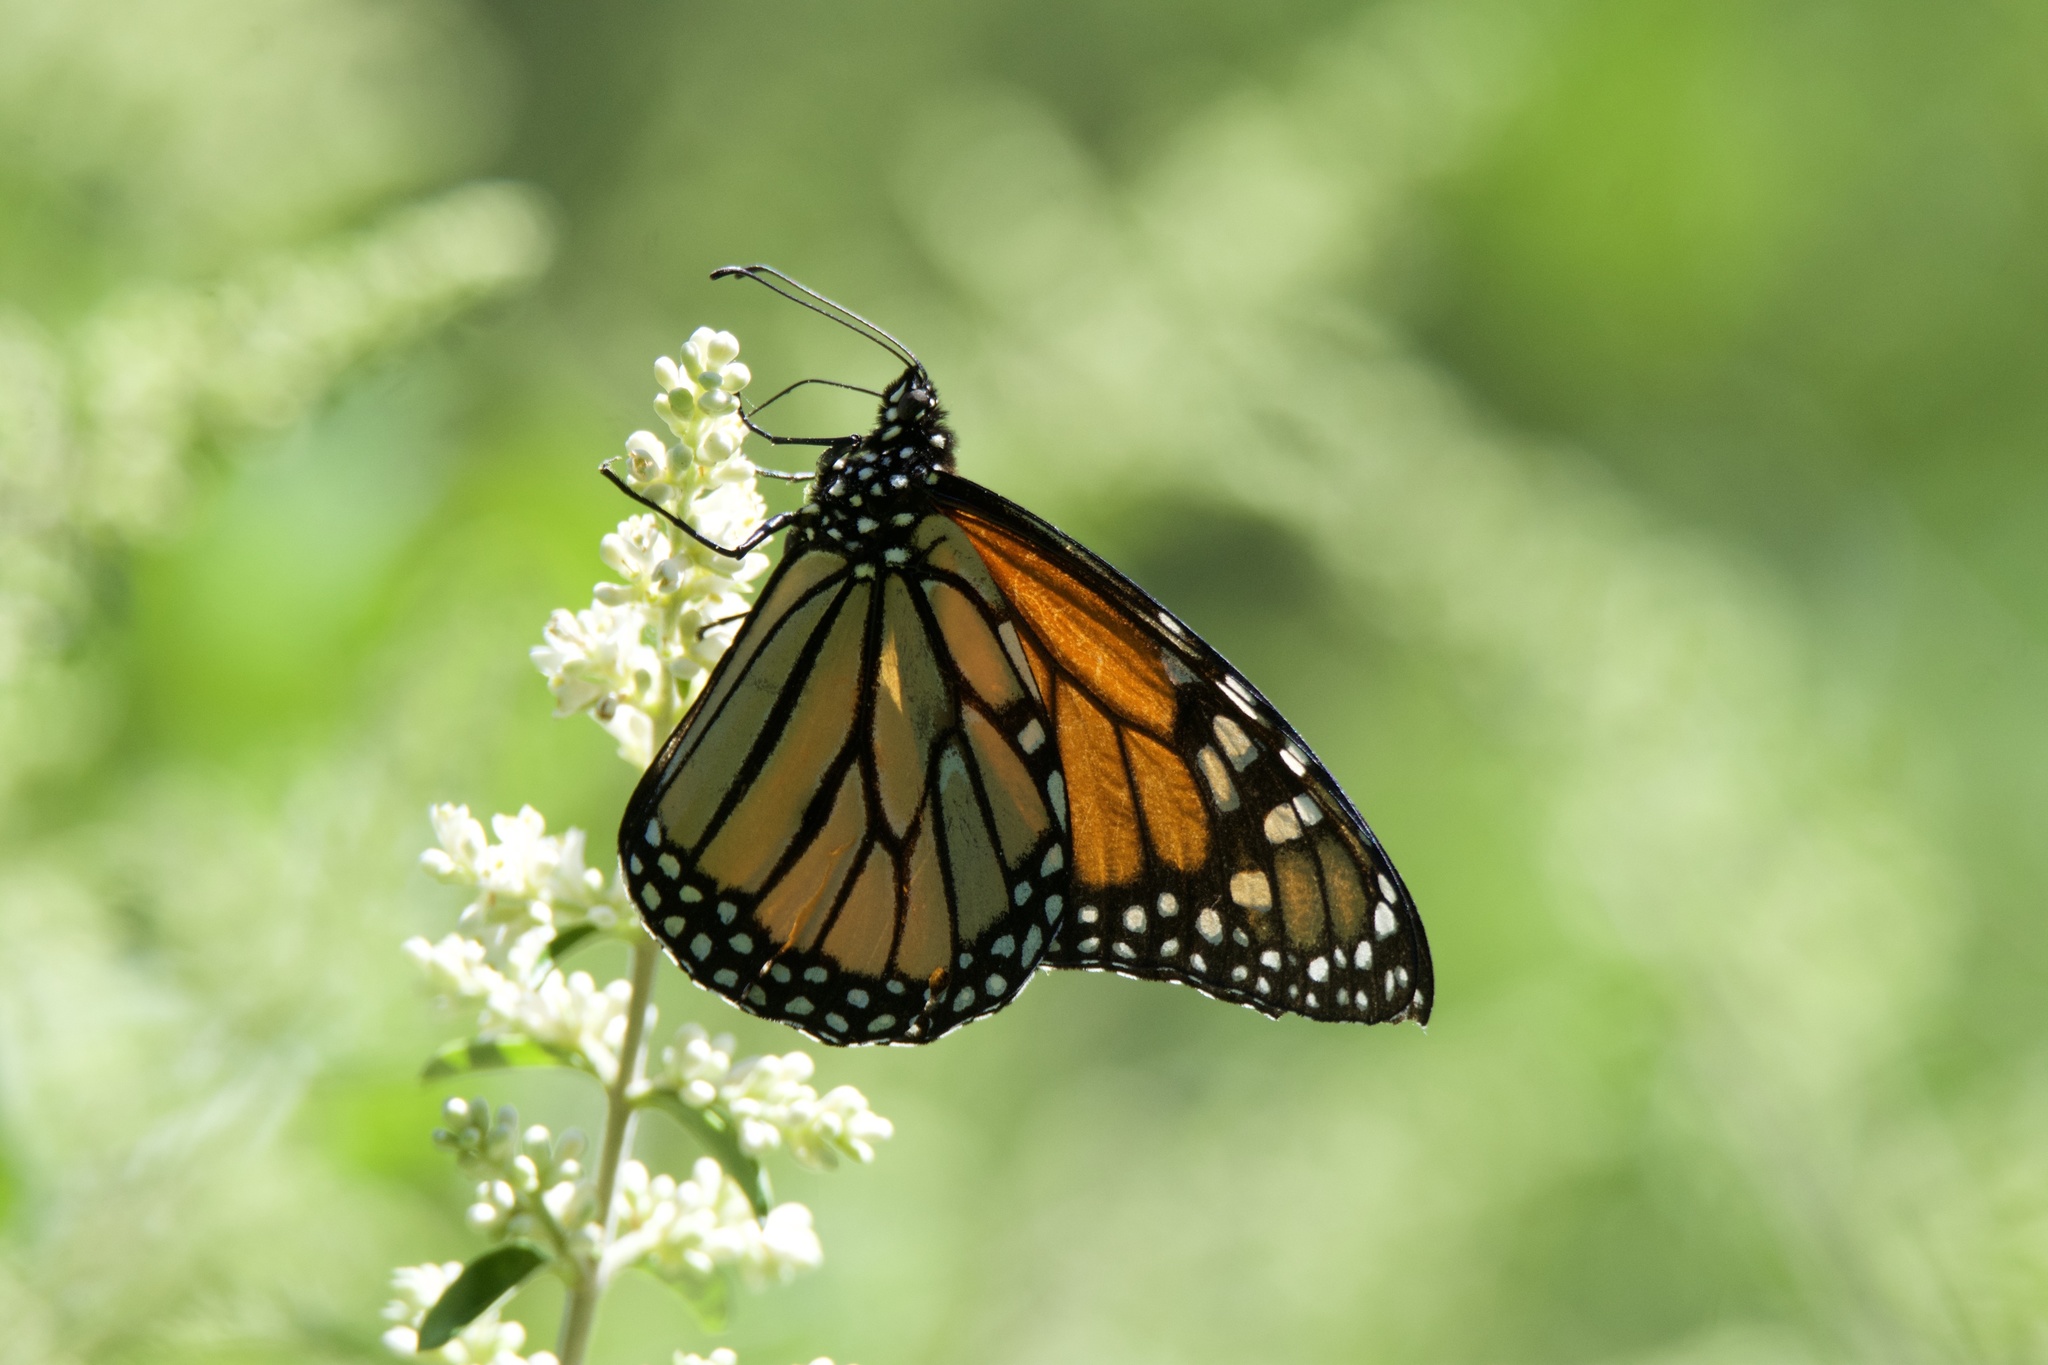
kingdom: Animalia
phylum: Arthropoda
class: Insecta
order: Lepidoptera
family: Nymphalidae
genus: Danaus
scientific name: Danaus plexippus
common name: Monarch
